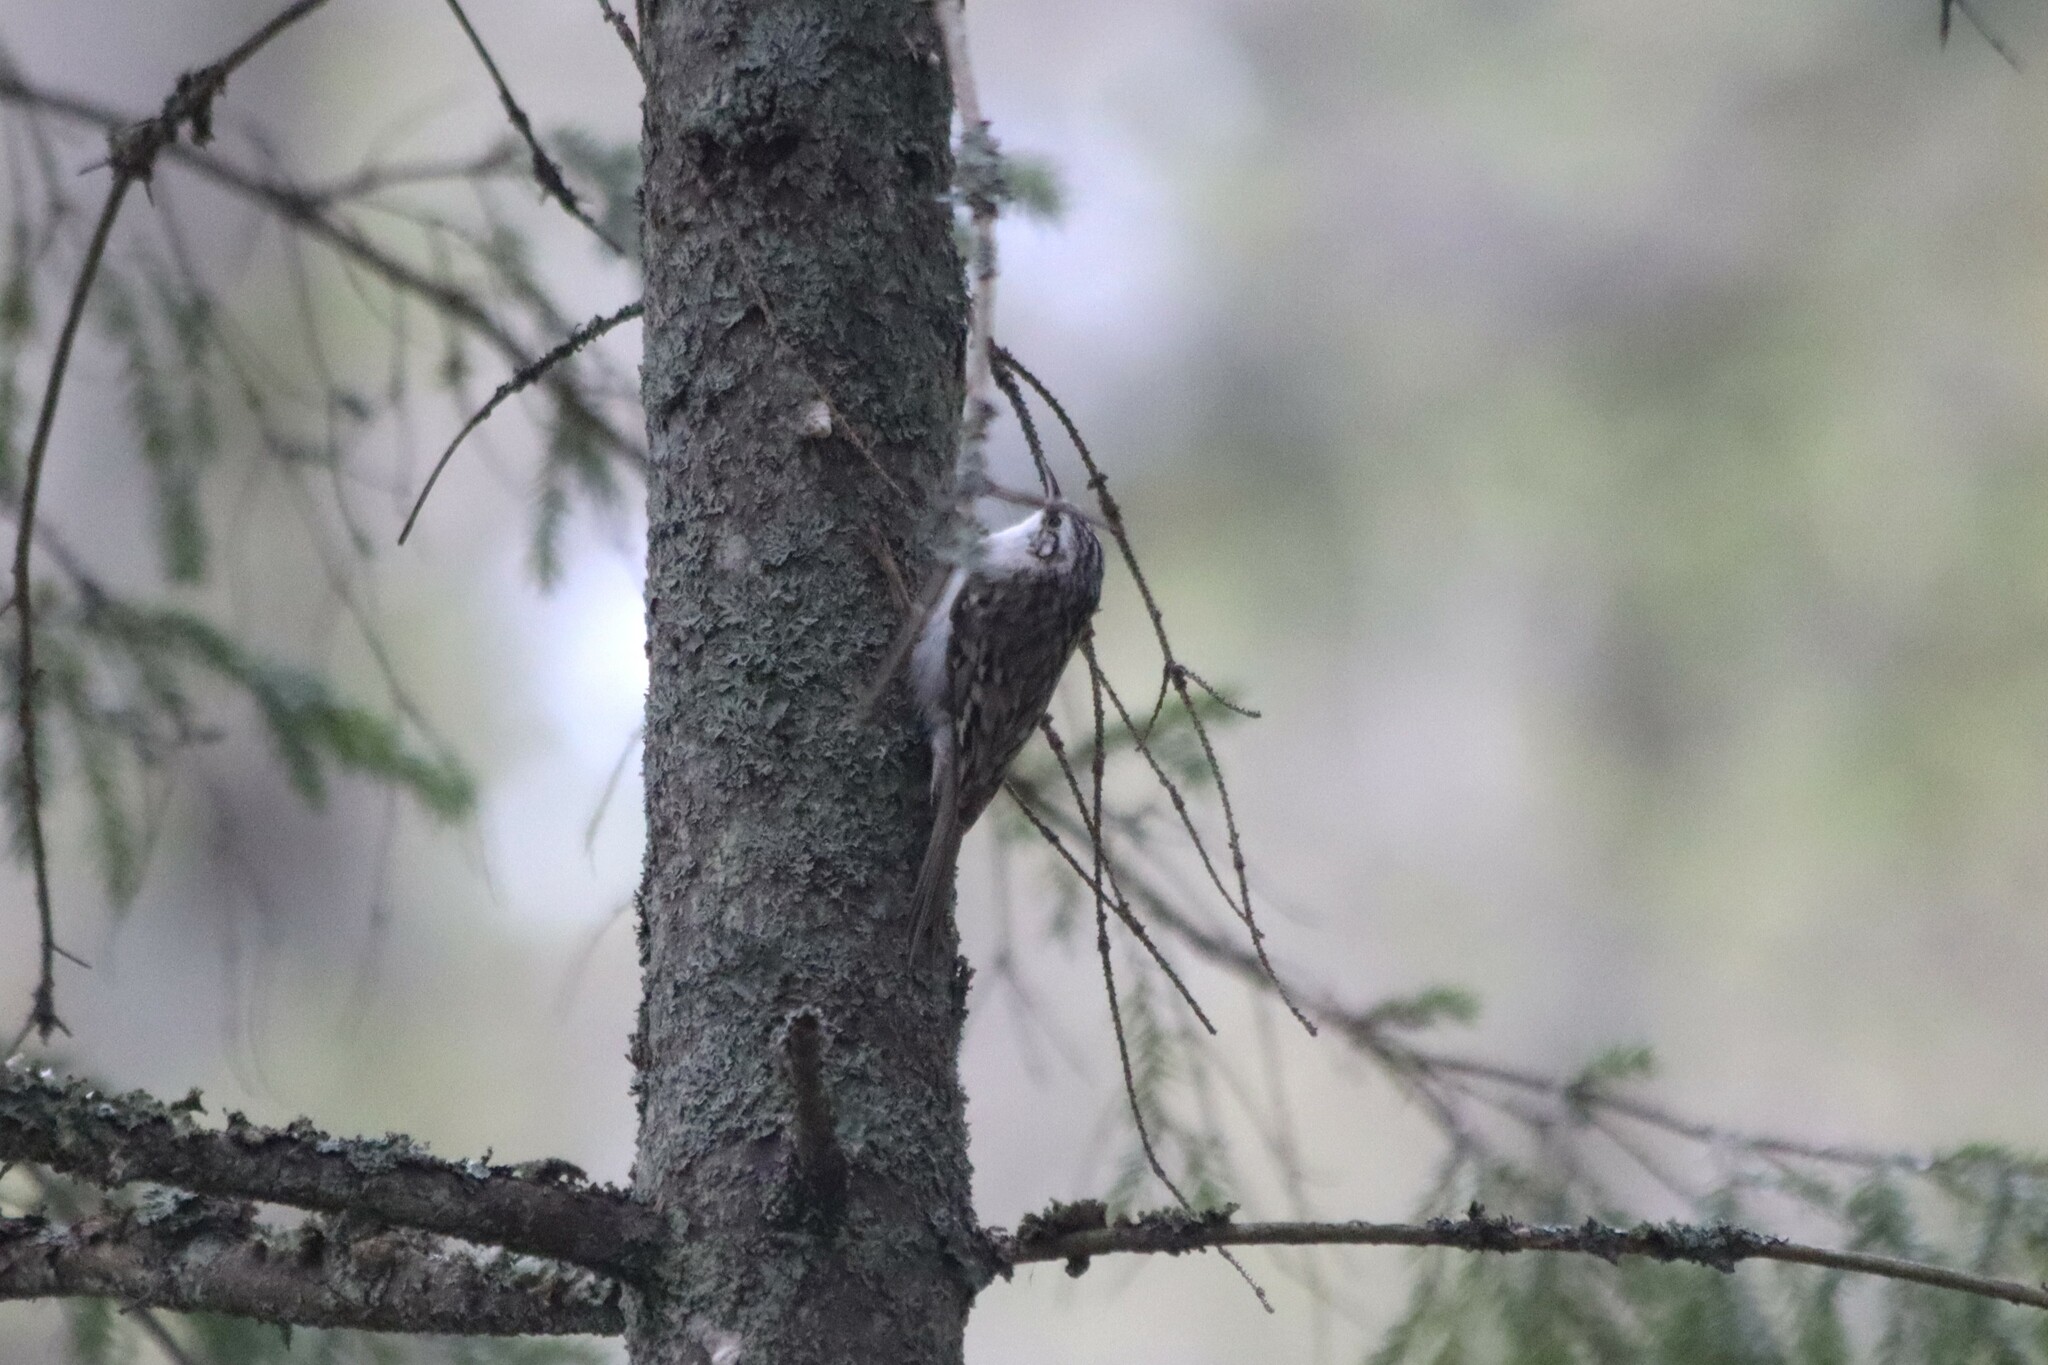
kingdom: Animalia
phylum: Chordata
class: Aves
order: Passeriformes
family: Certhiidae
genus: Certhia
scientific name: Certhia familiaris
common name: Eurasian treecreeper
